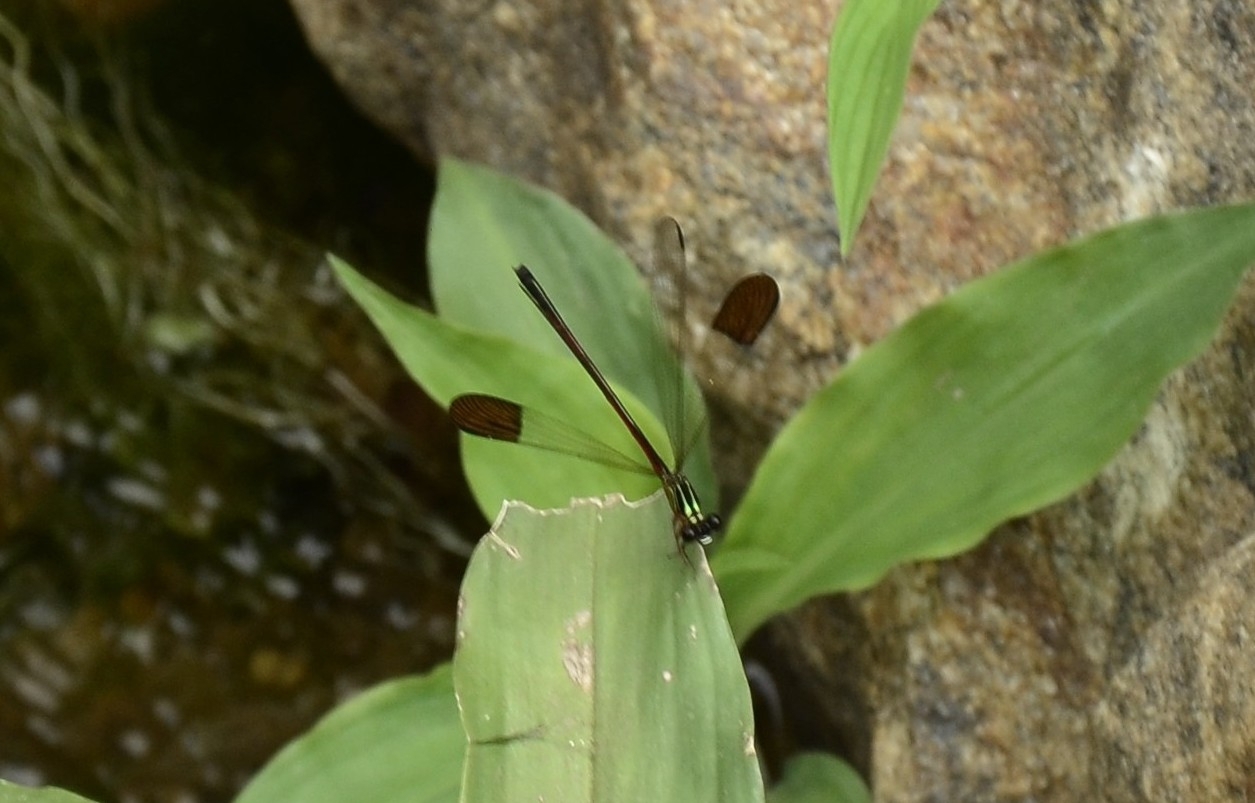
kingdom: Animalia
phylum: Arthropoda
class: Insecta
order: Odonata
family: Euphaeidae
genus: Euphaea
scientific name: Euphaea fraseri
